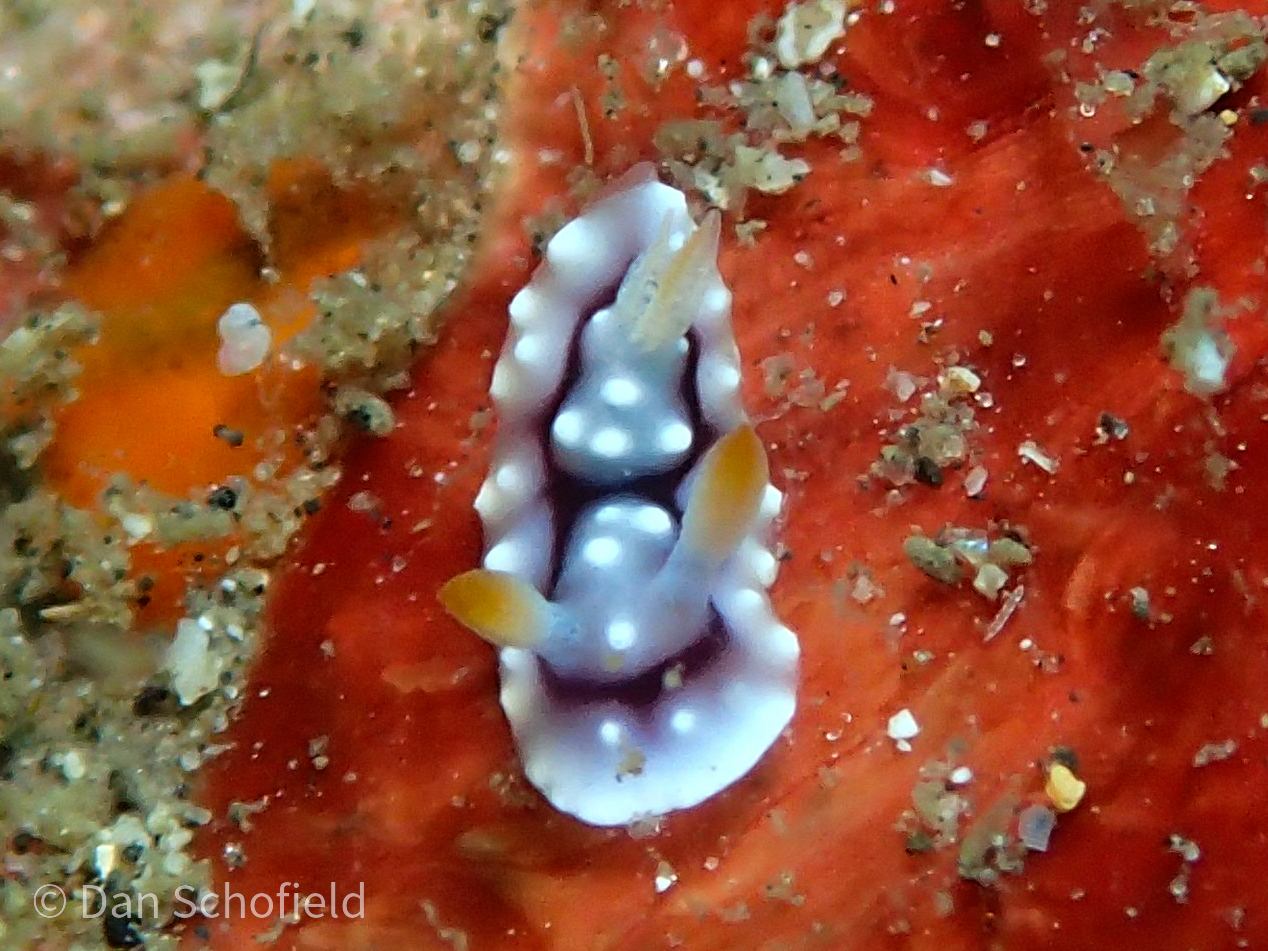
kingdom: Animalia
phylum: Mollusca
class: Gastropoda
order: Nudibranchia
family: Chromodorididae
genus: Goniobranchus
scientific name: Goniobranchus geometricus
